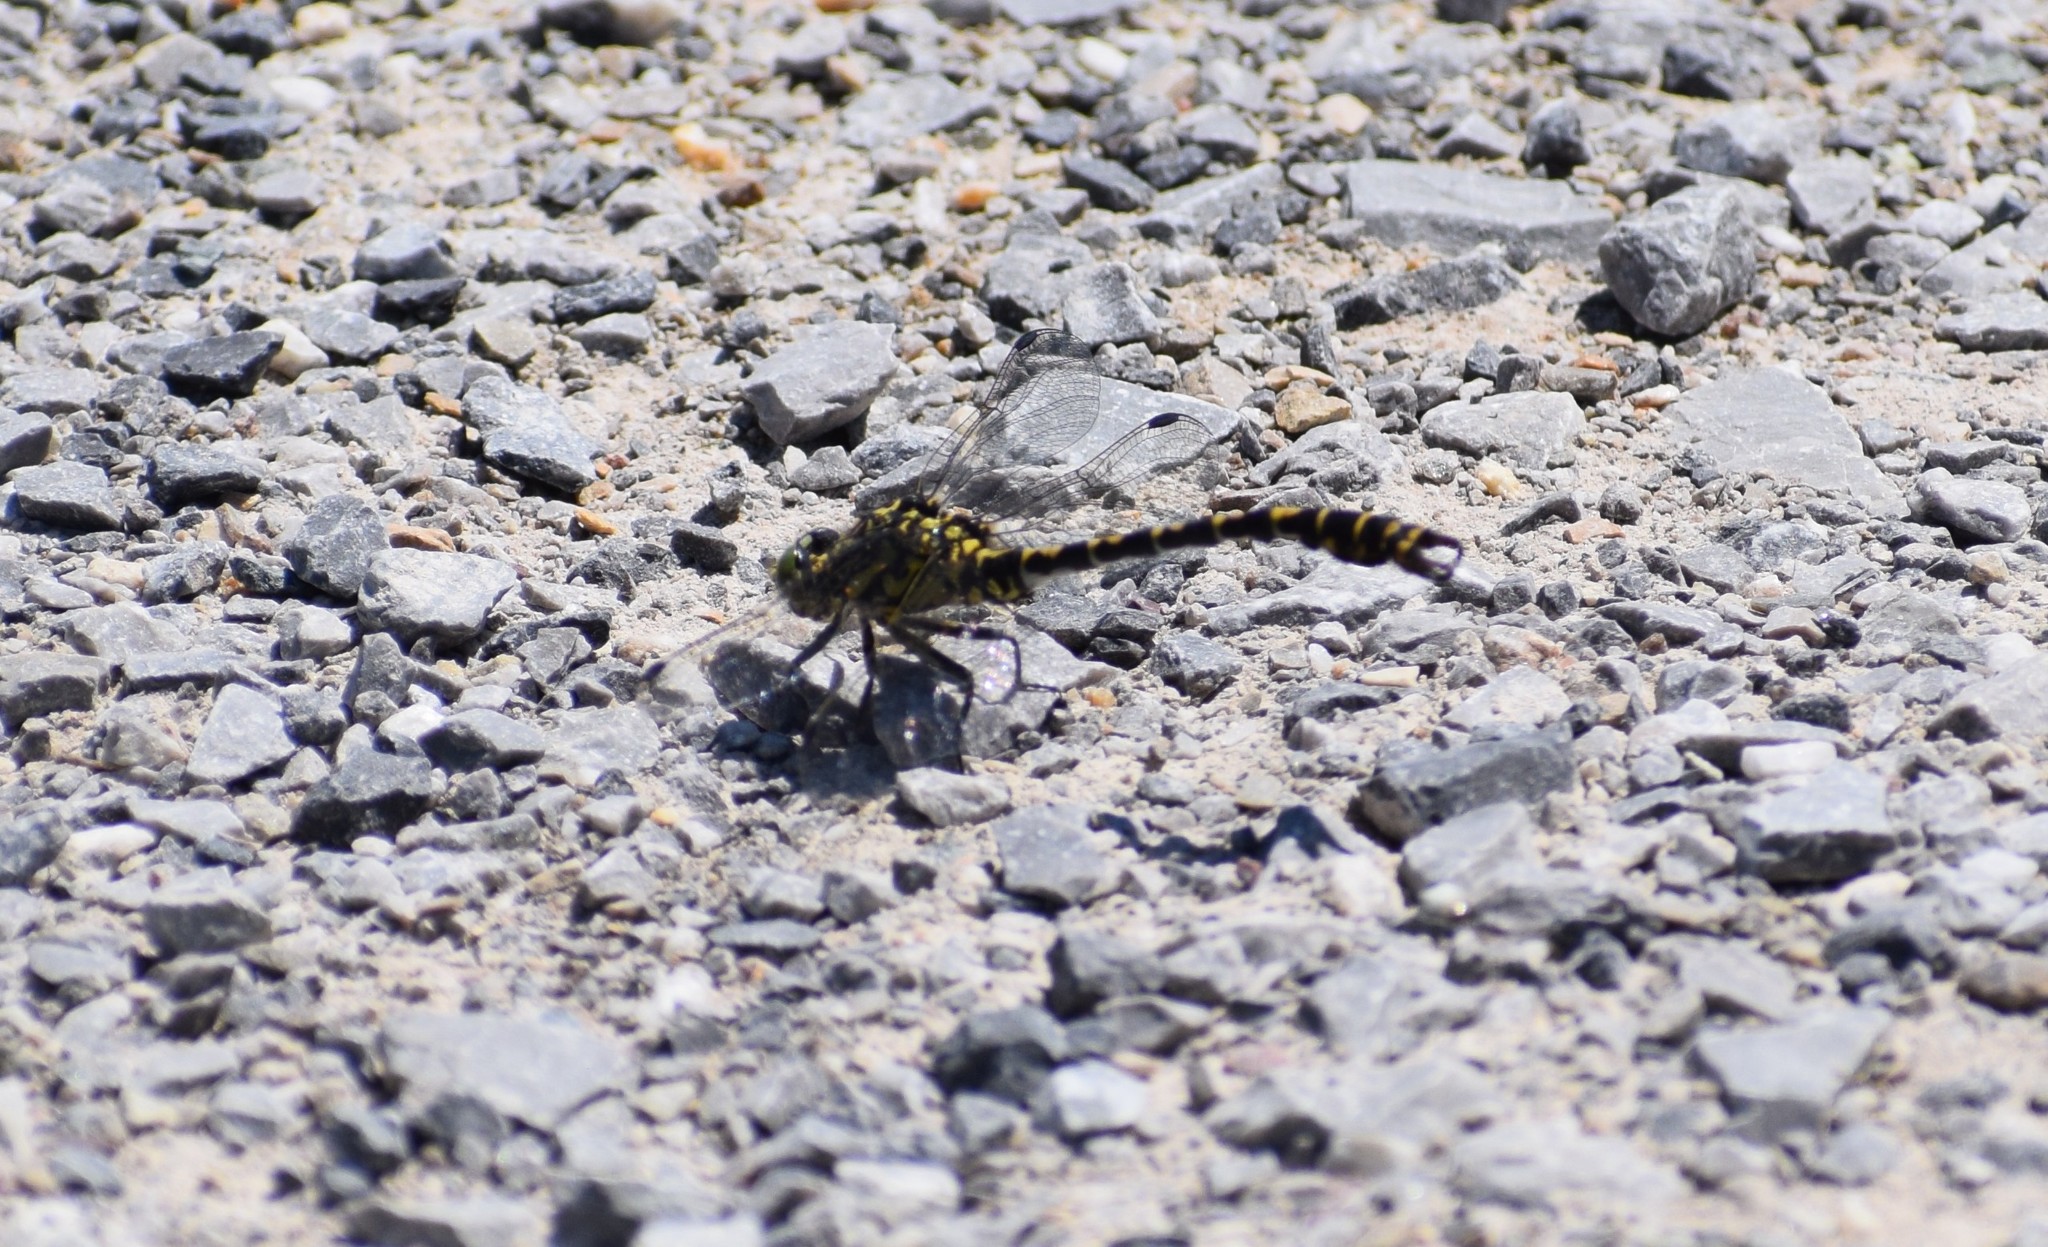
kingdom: Animalia
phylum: Arthropoda
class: Insecta
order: Odonata
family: Gomphidae
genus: Onychogomphus
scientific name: Onychogomphus forcipatus
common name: Small pincertail
